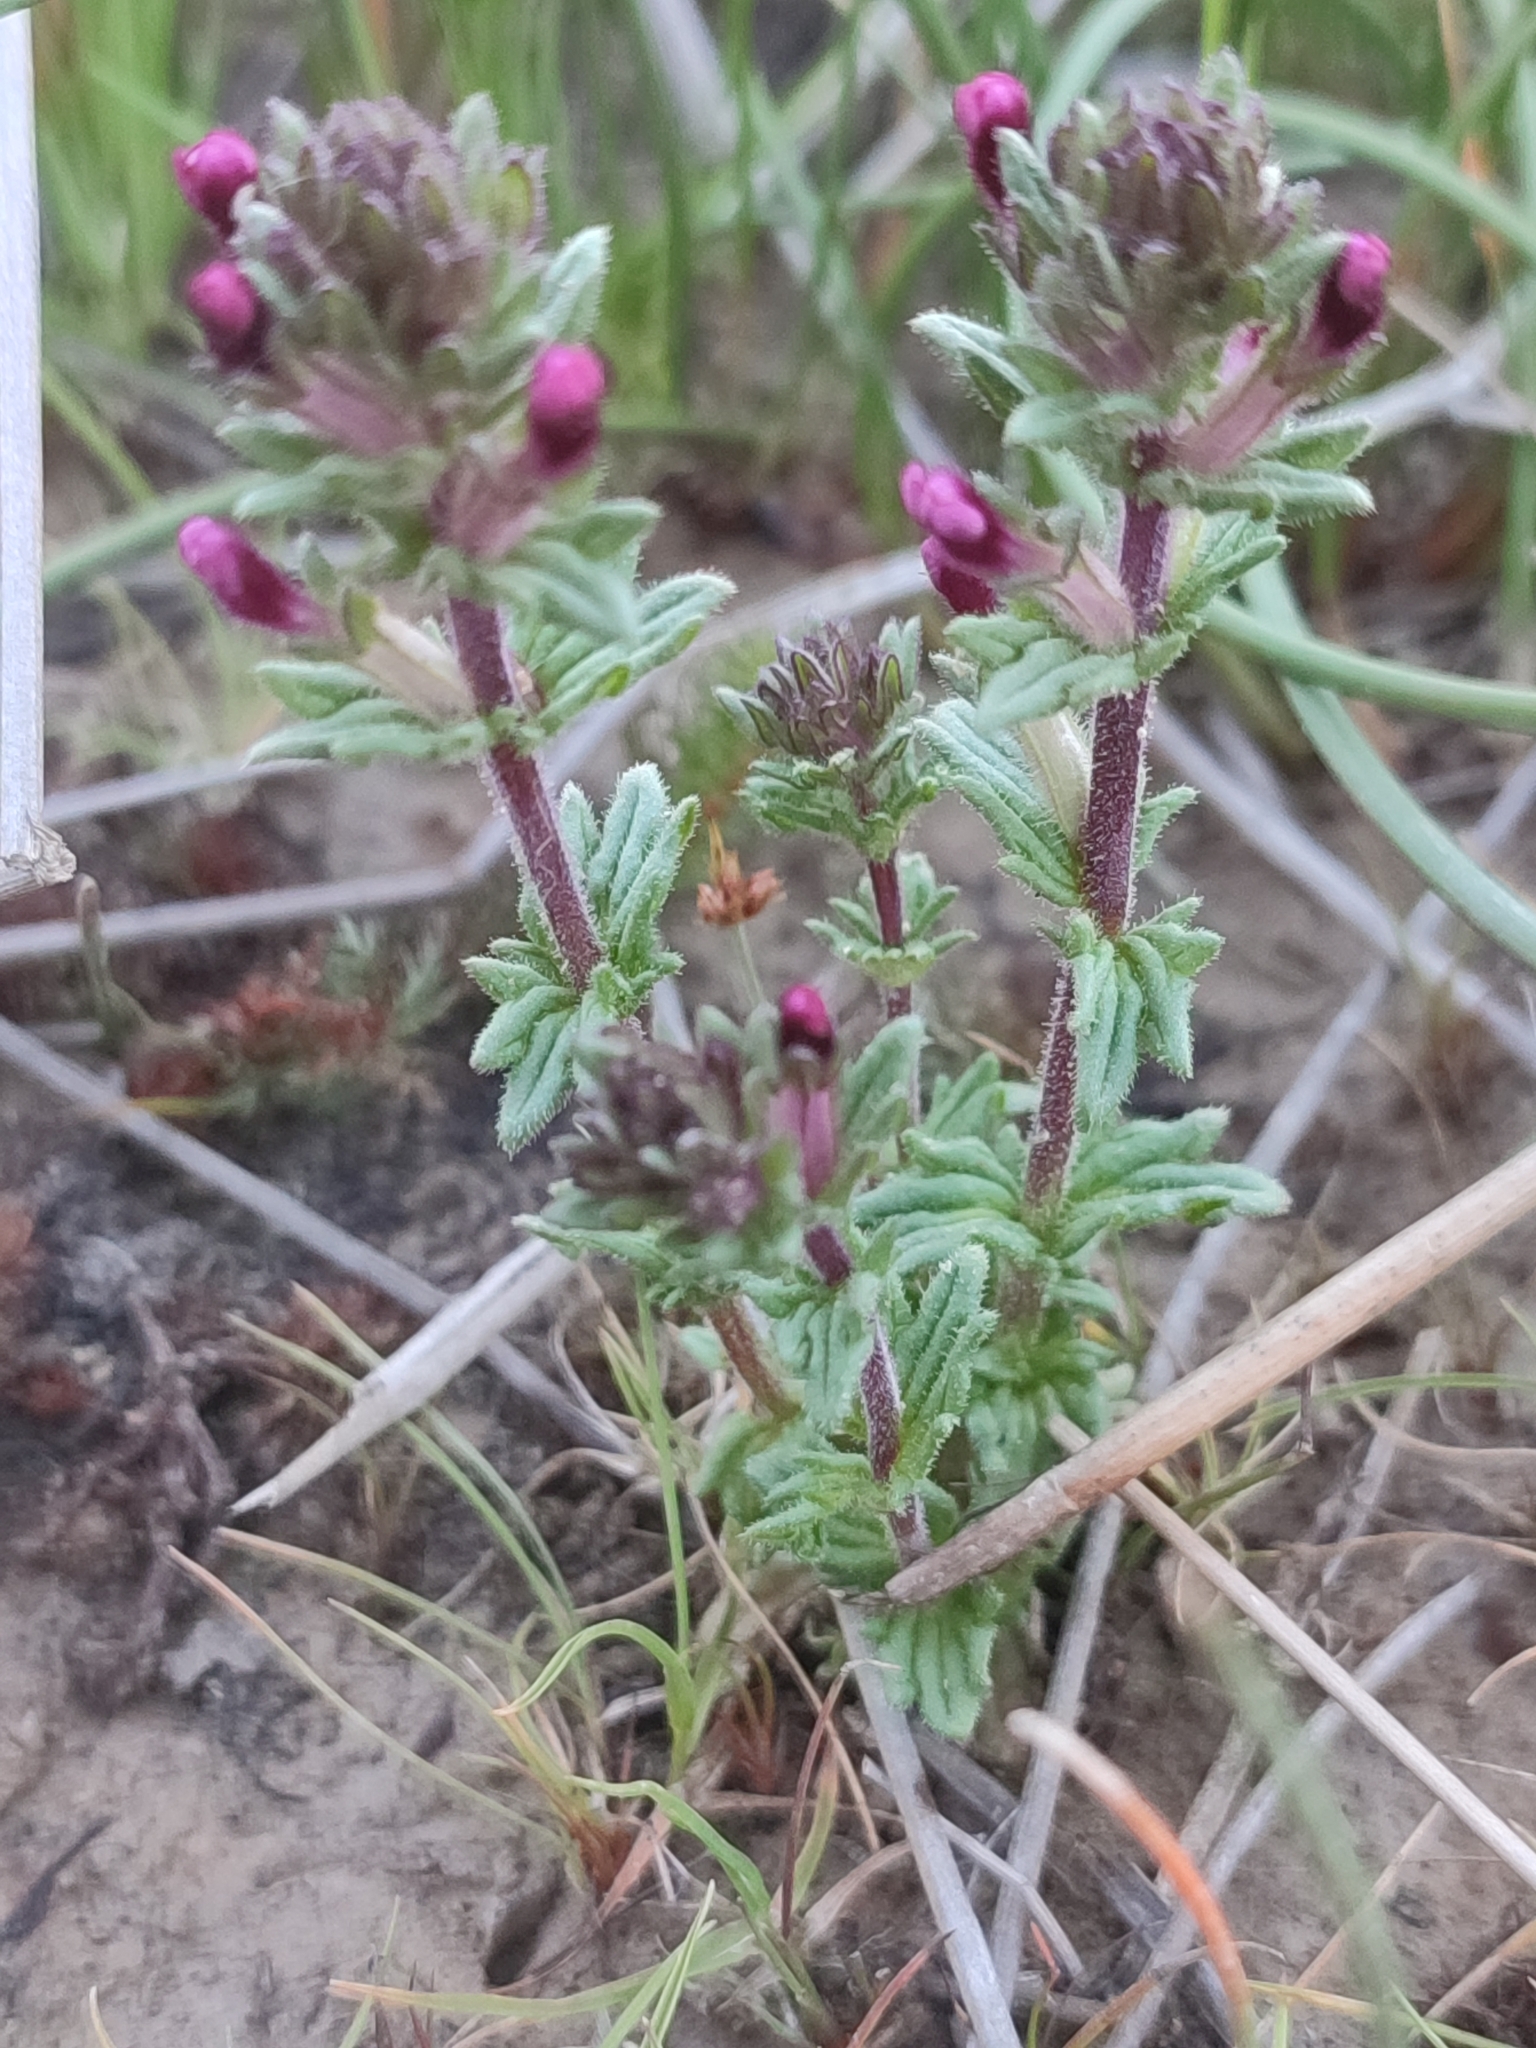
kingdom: Plantae
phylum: Tracheophyta
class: Magnoliopsida
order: Lamiales
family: Orobanchaceae
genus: Parentucellia
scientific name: Parentucellia latifolia
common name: Broadleaf glandweed
